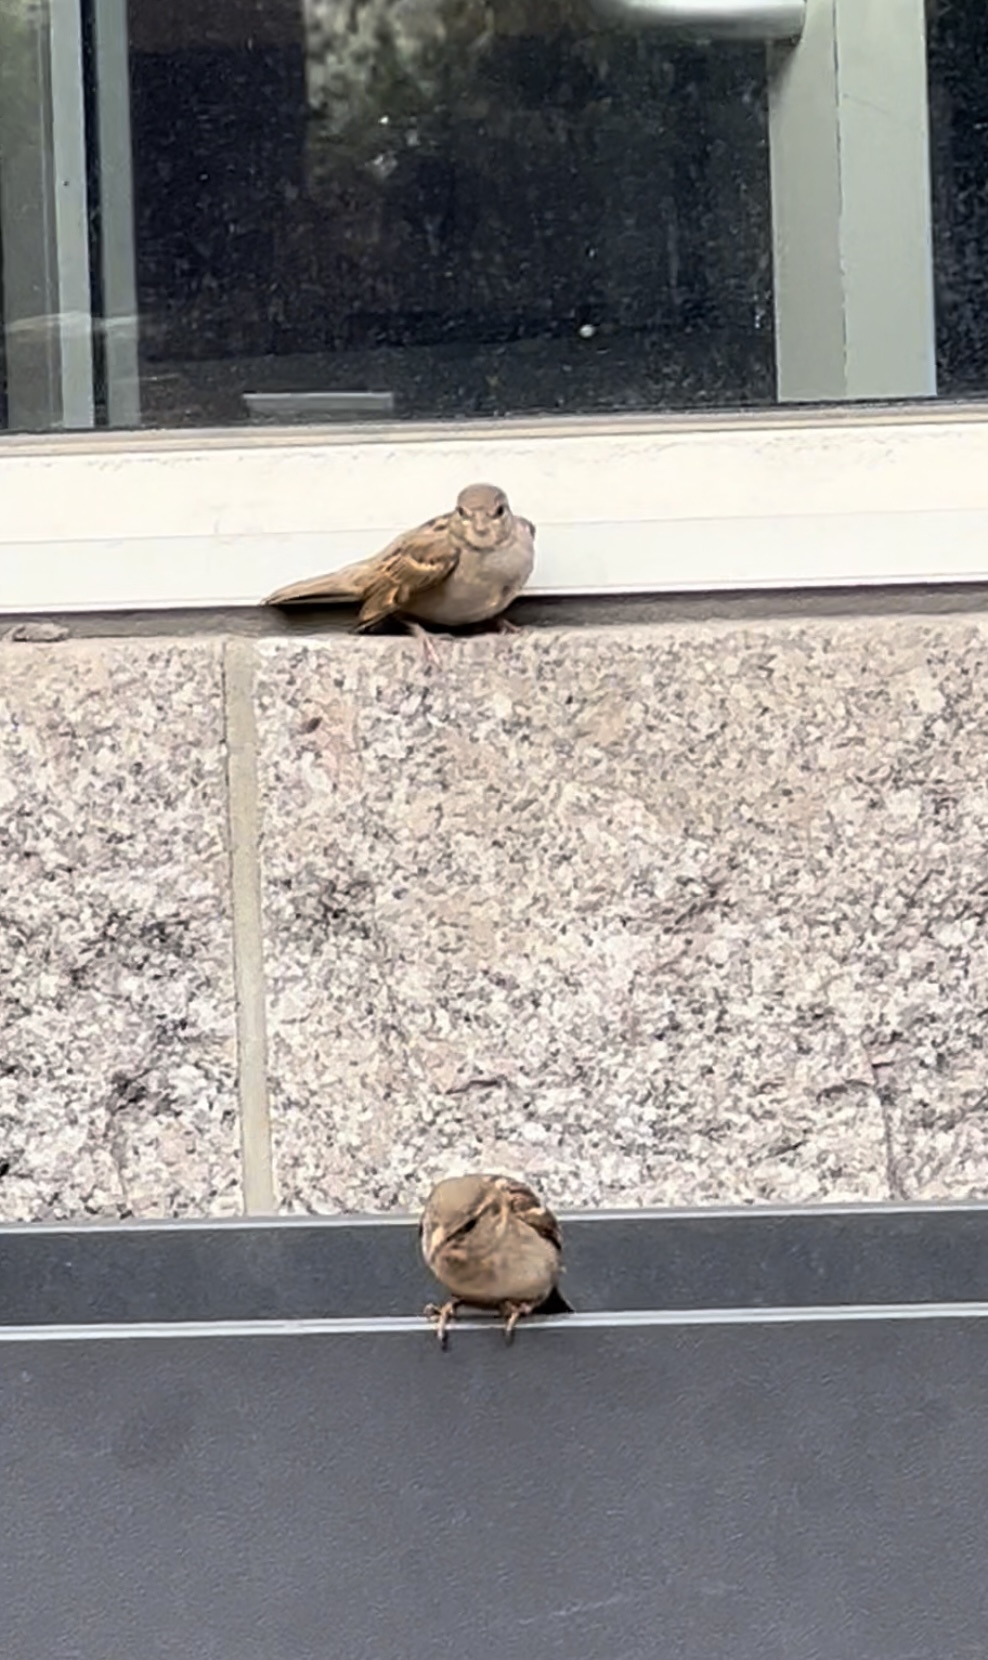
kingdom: Animalia
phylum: Chordata
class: Aves
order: Passeriformes
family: Passeridae
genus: Passer
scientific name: Passer domesticus
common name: House sparrow
